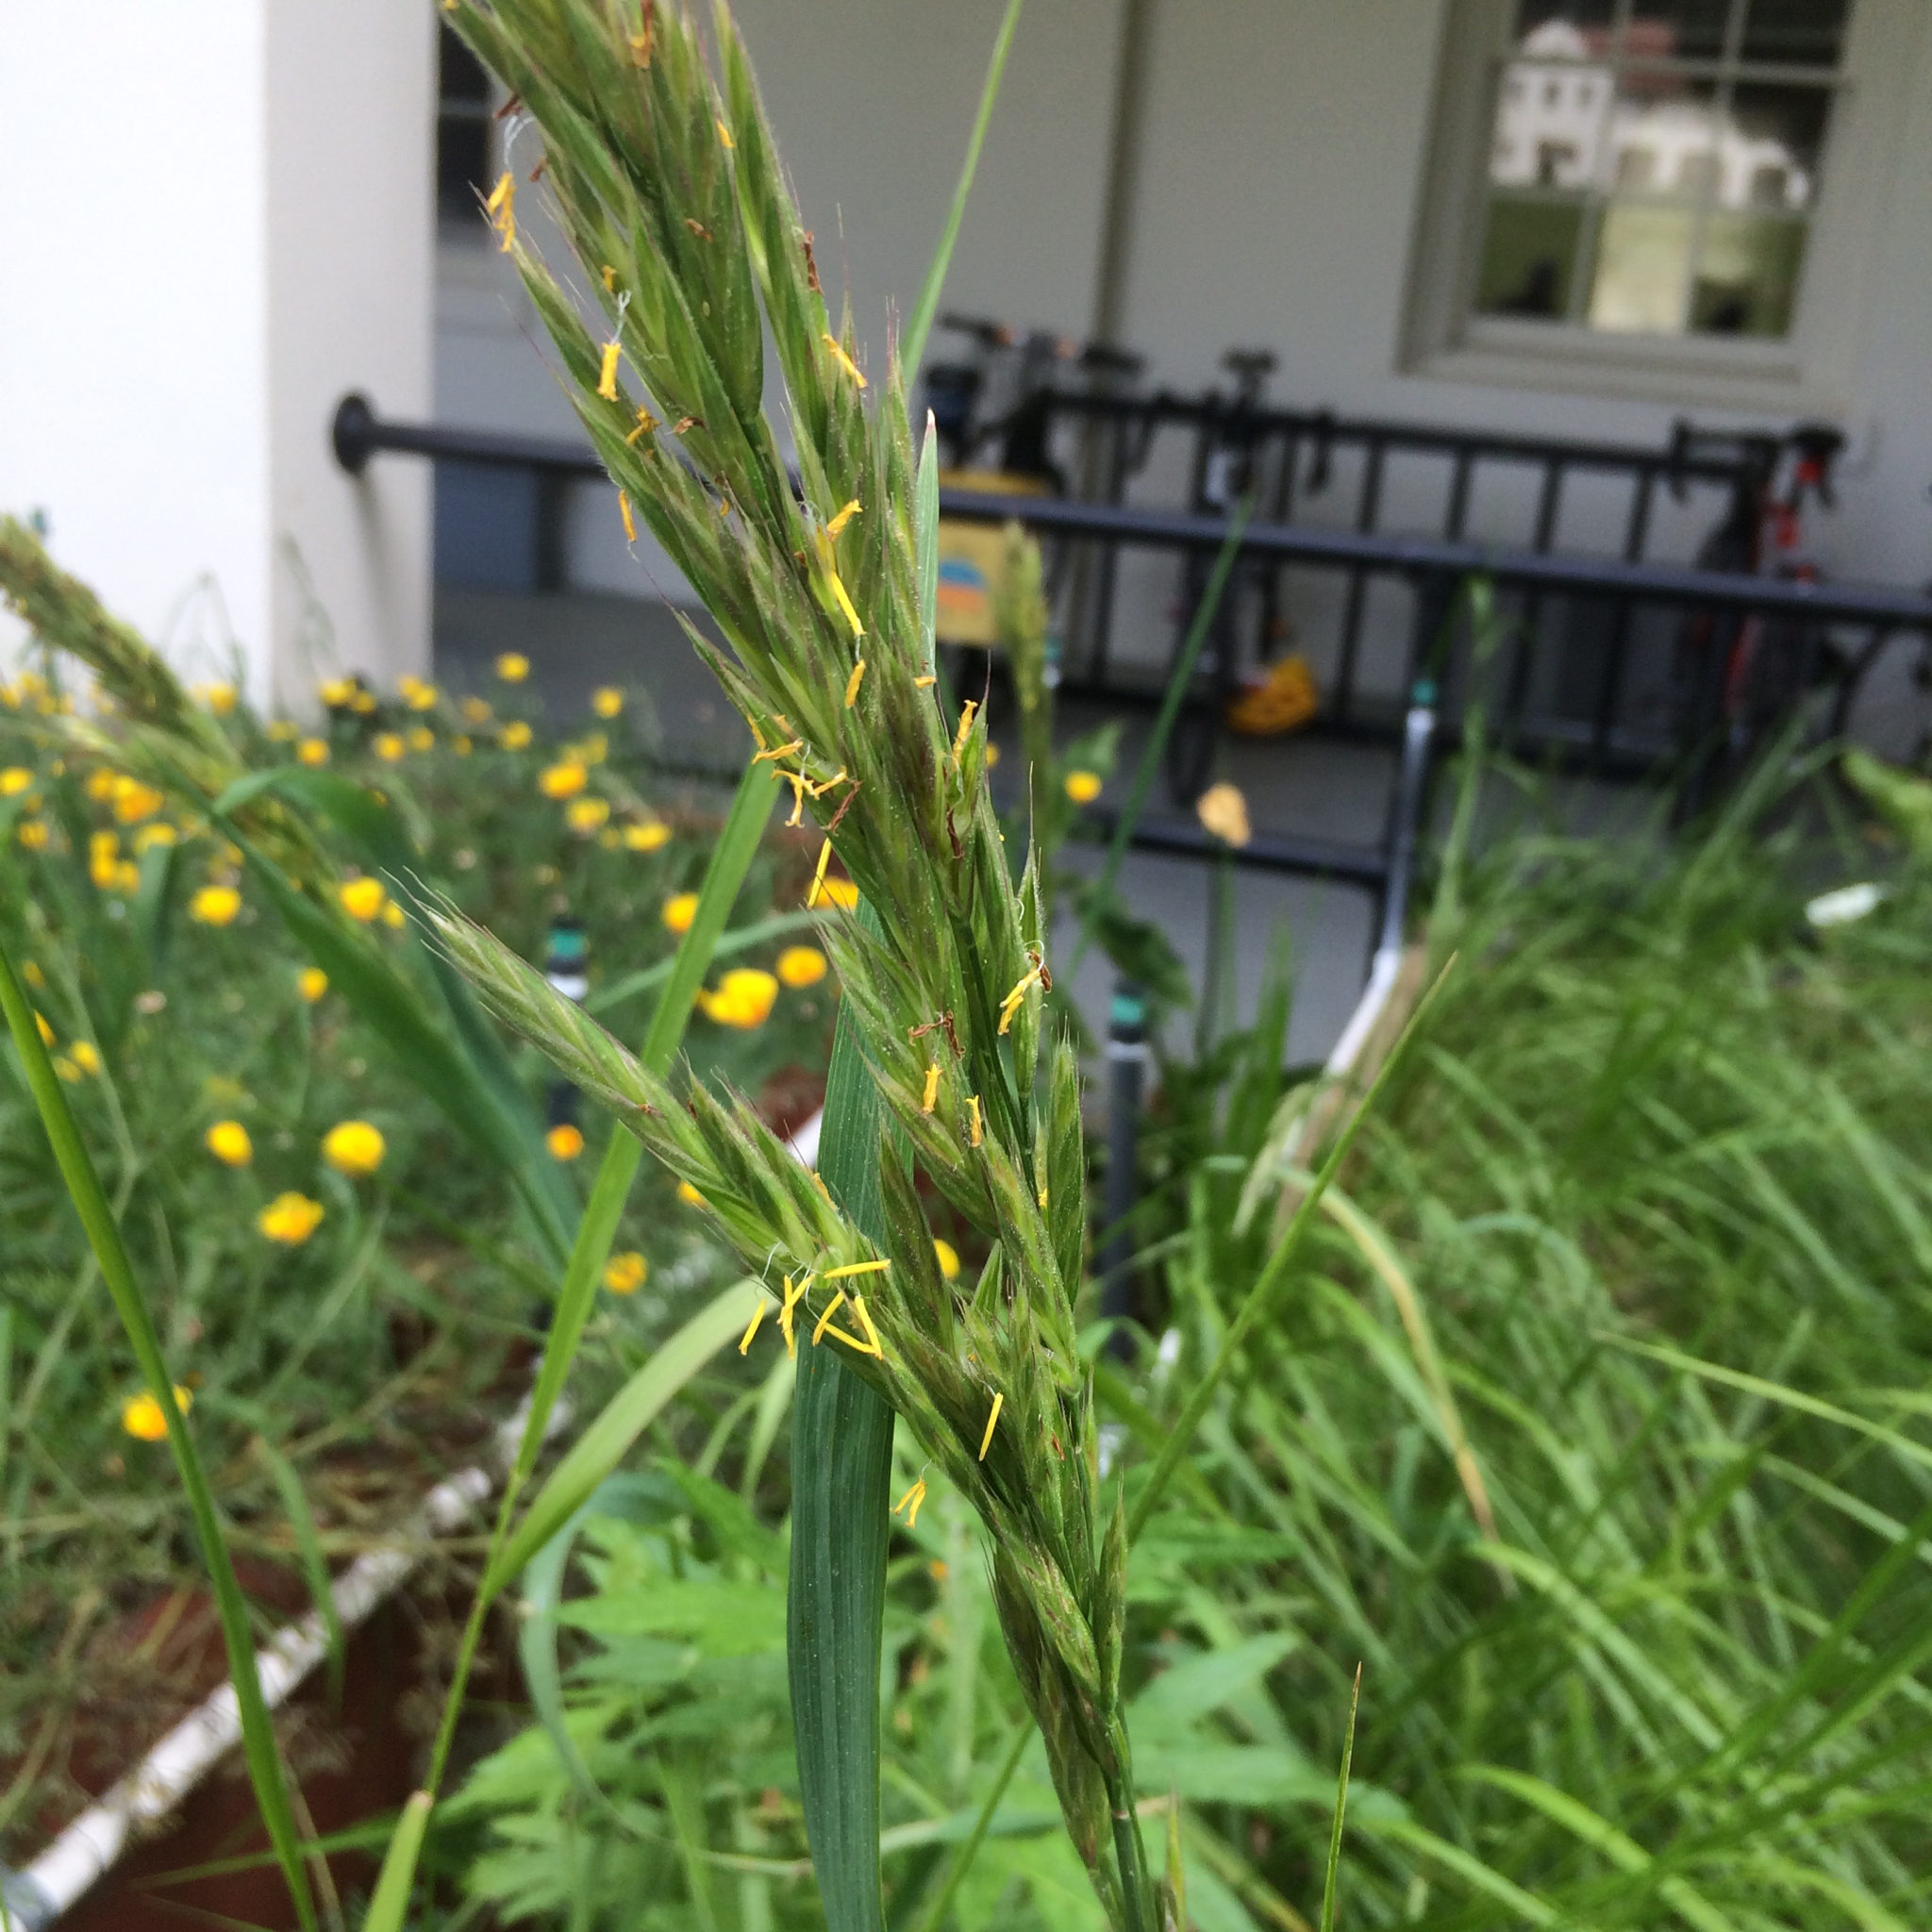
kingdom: Plantae
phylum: Tracheophyta
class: Liliopsida
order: Poales
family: Poaceae
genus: Bromus
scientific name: Bromus maritimus
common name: Maritime brome
